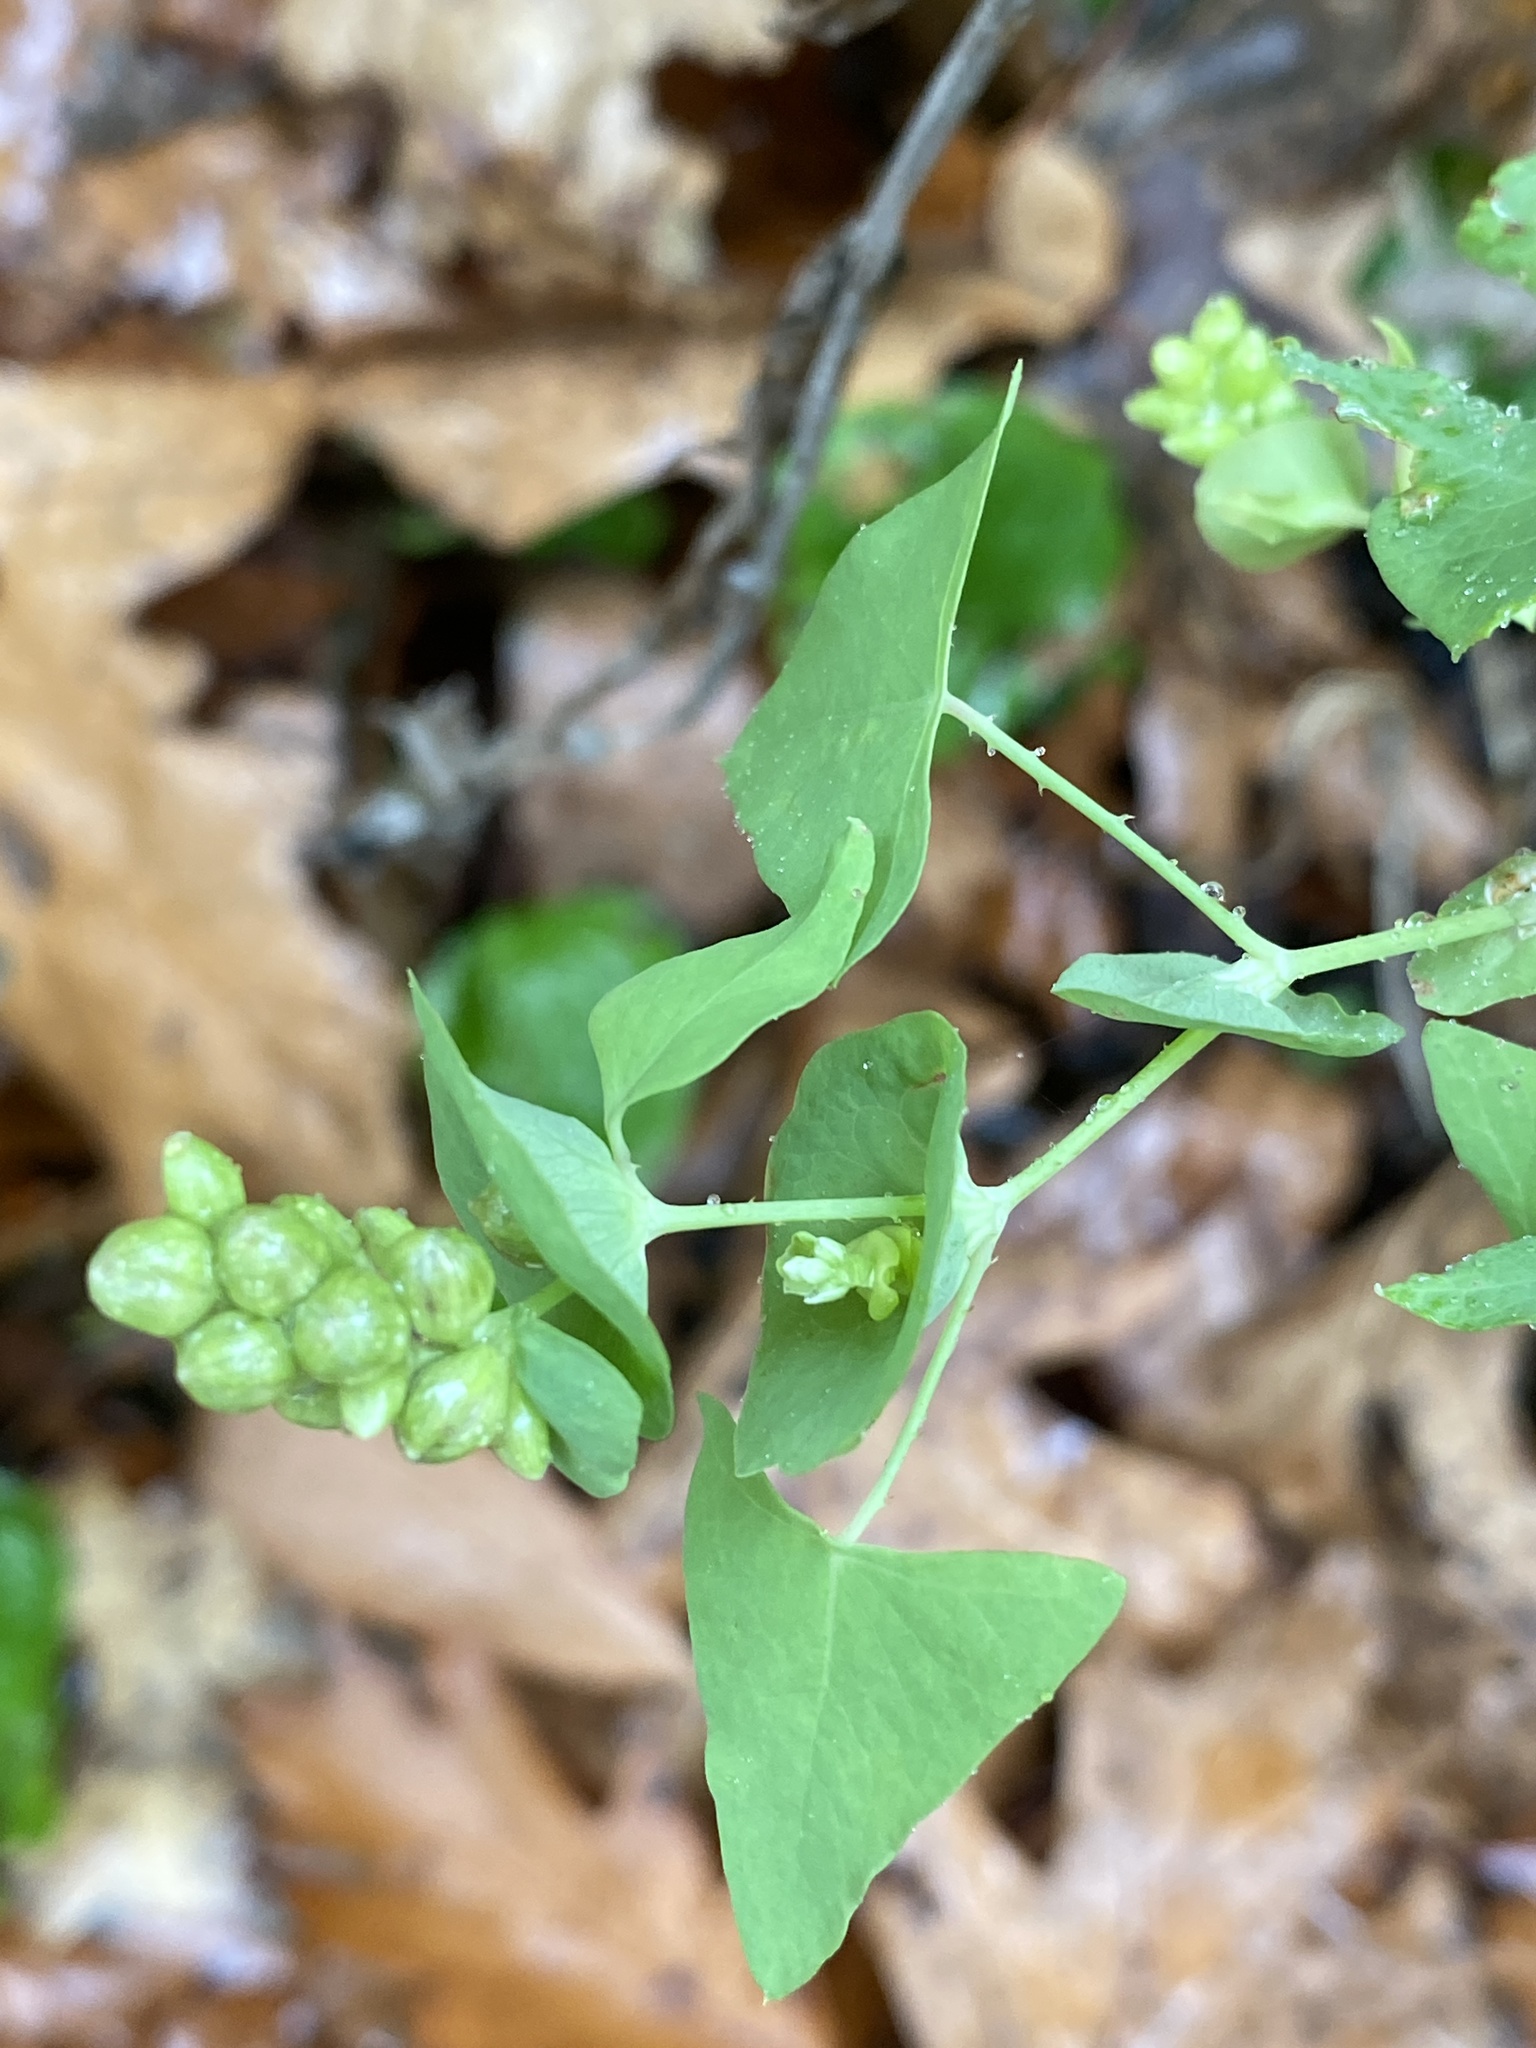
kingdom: Plantae
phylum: Tracheophyta
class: Magnoliopsida
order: Caryophyllales
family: Polygonaceae
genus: Persicaria
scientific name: Persicaria perfoliata
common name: Asiatic tearthumb
